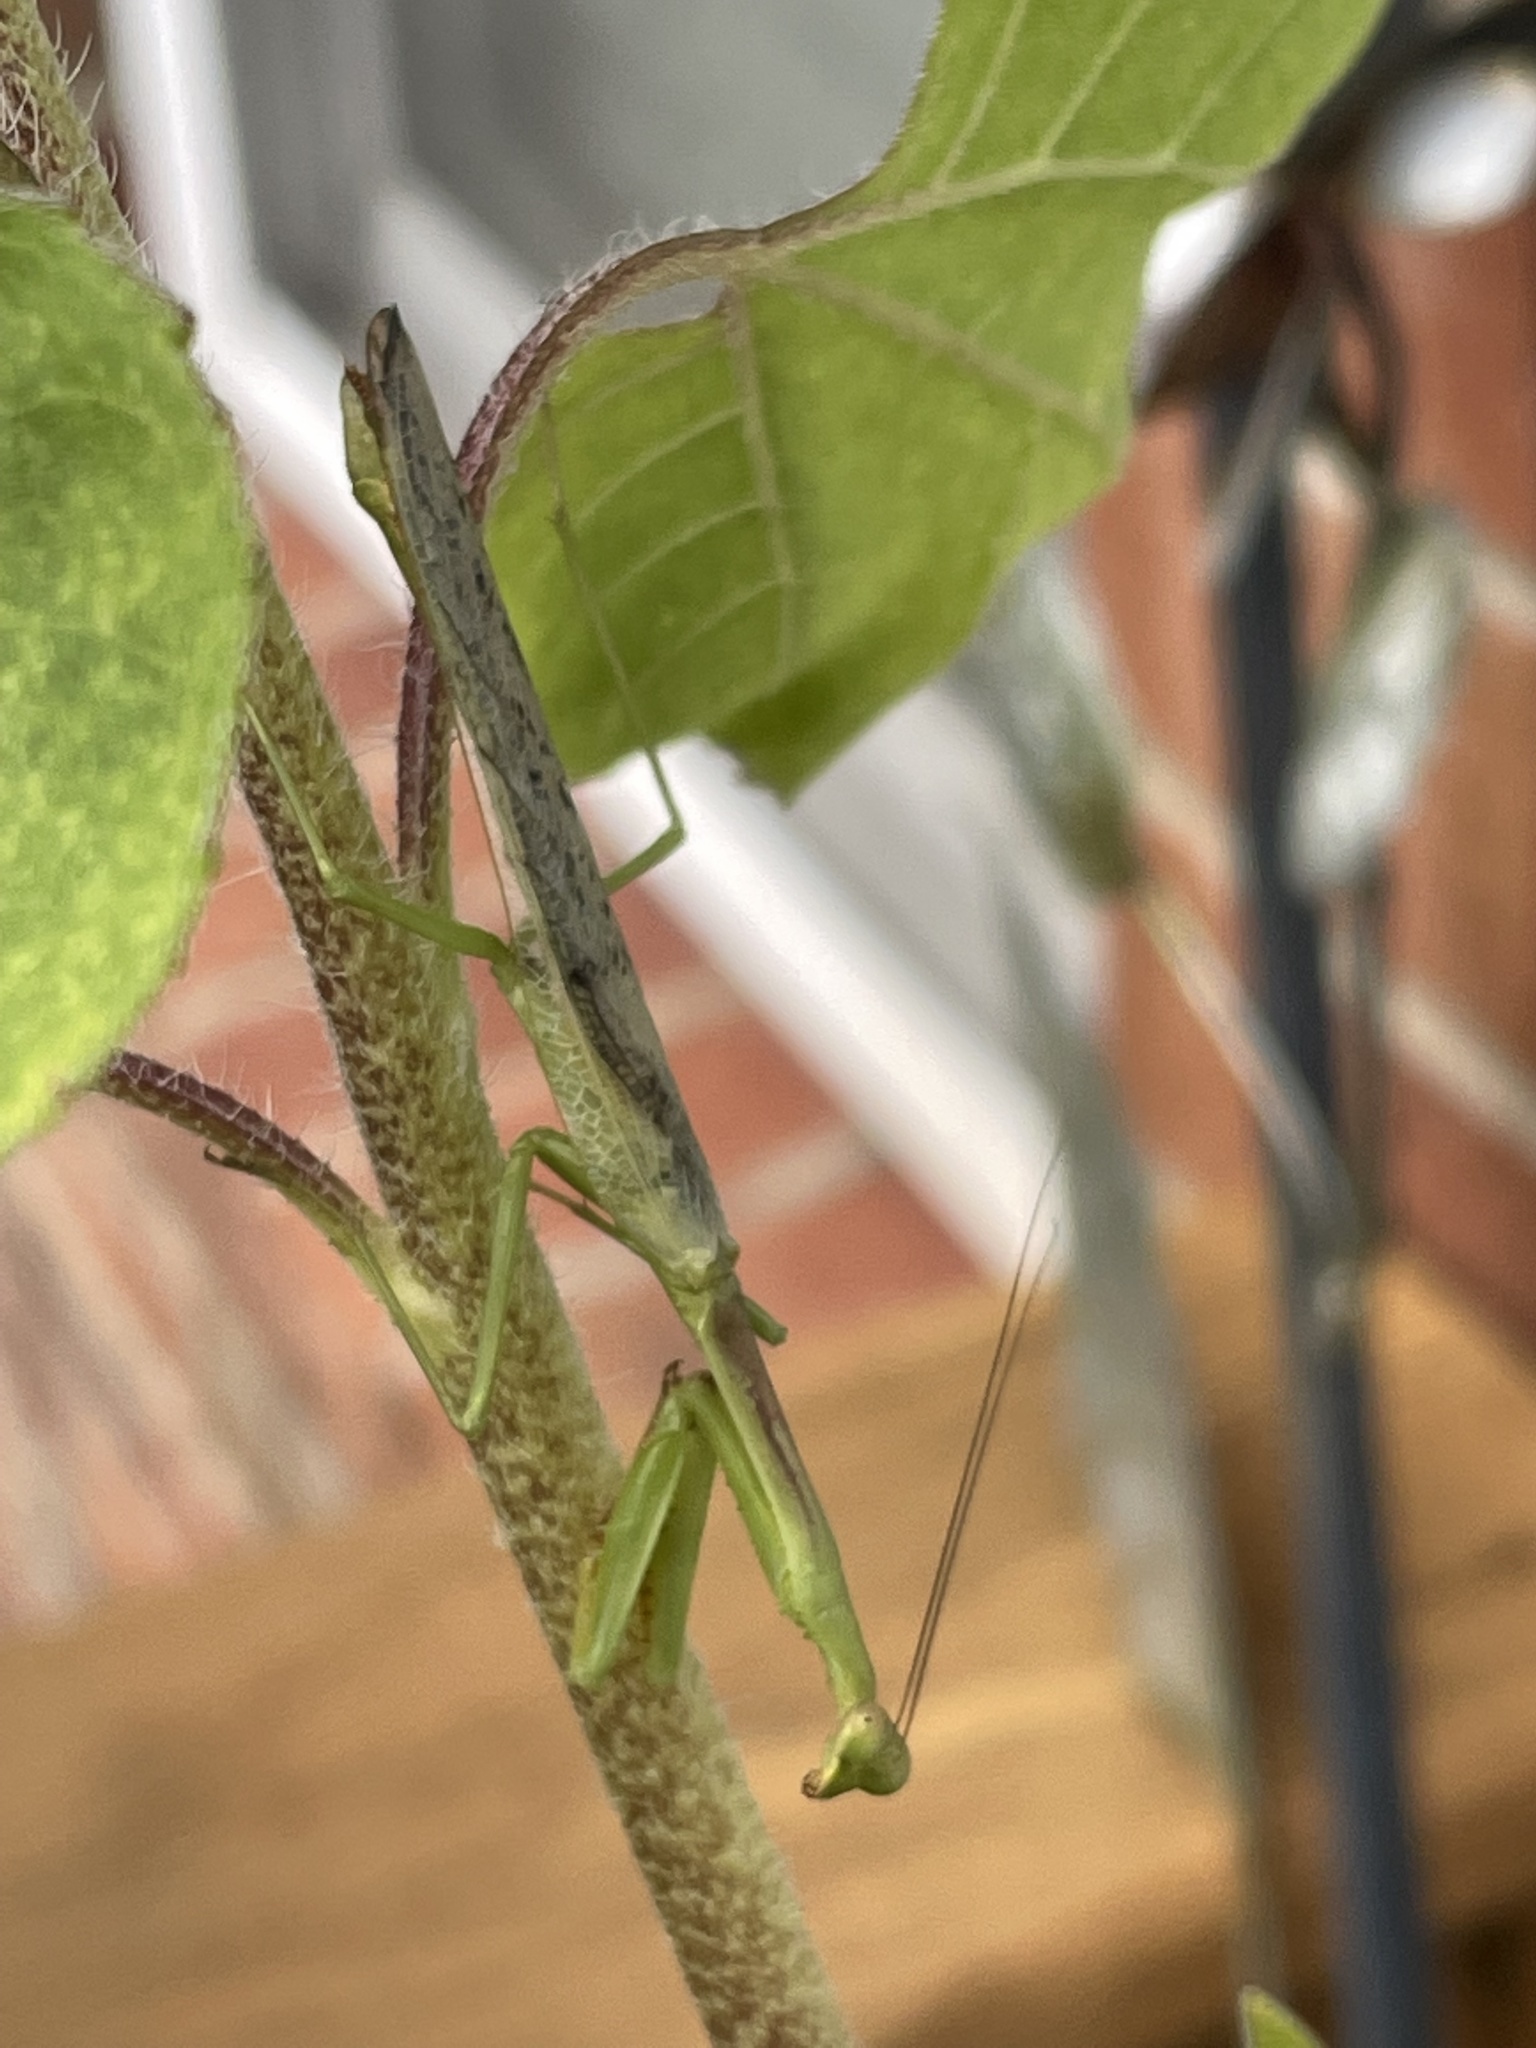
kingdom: Animalia
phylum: Arthropoda
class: Insecta
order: Mantodea
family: Mantidae
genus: Stagmomantis
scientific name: Stagmomantis carolina
